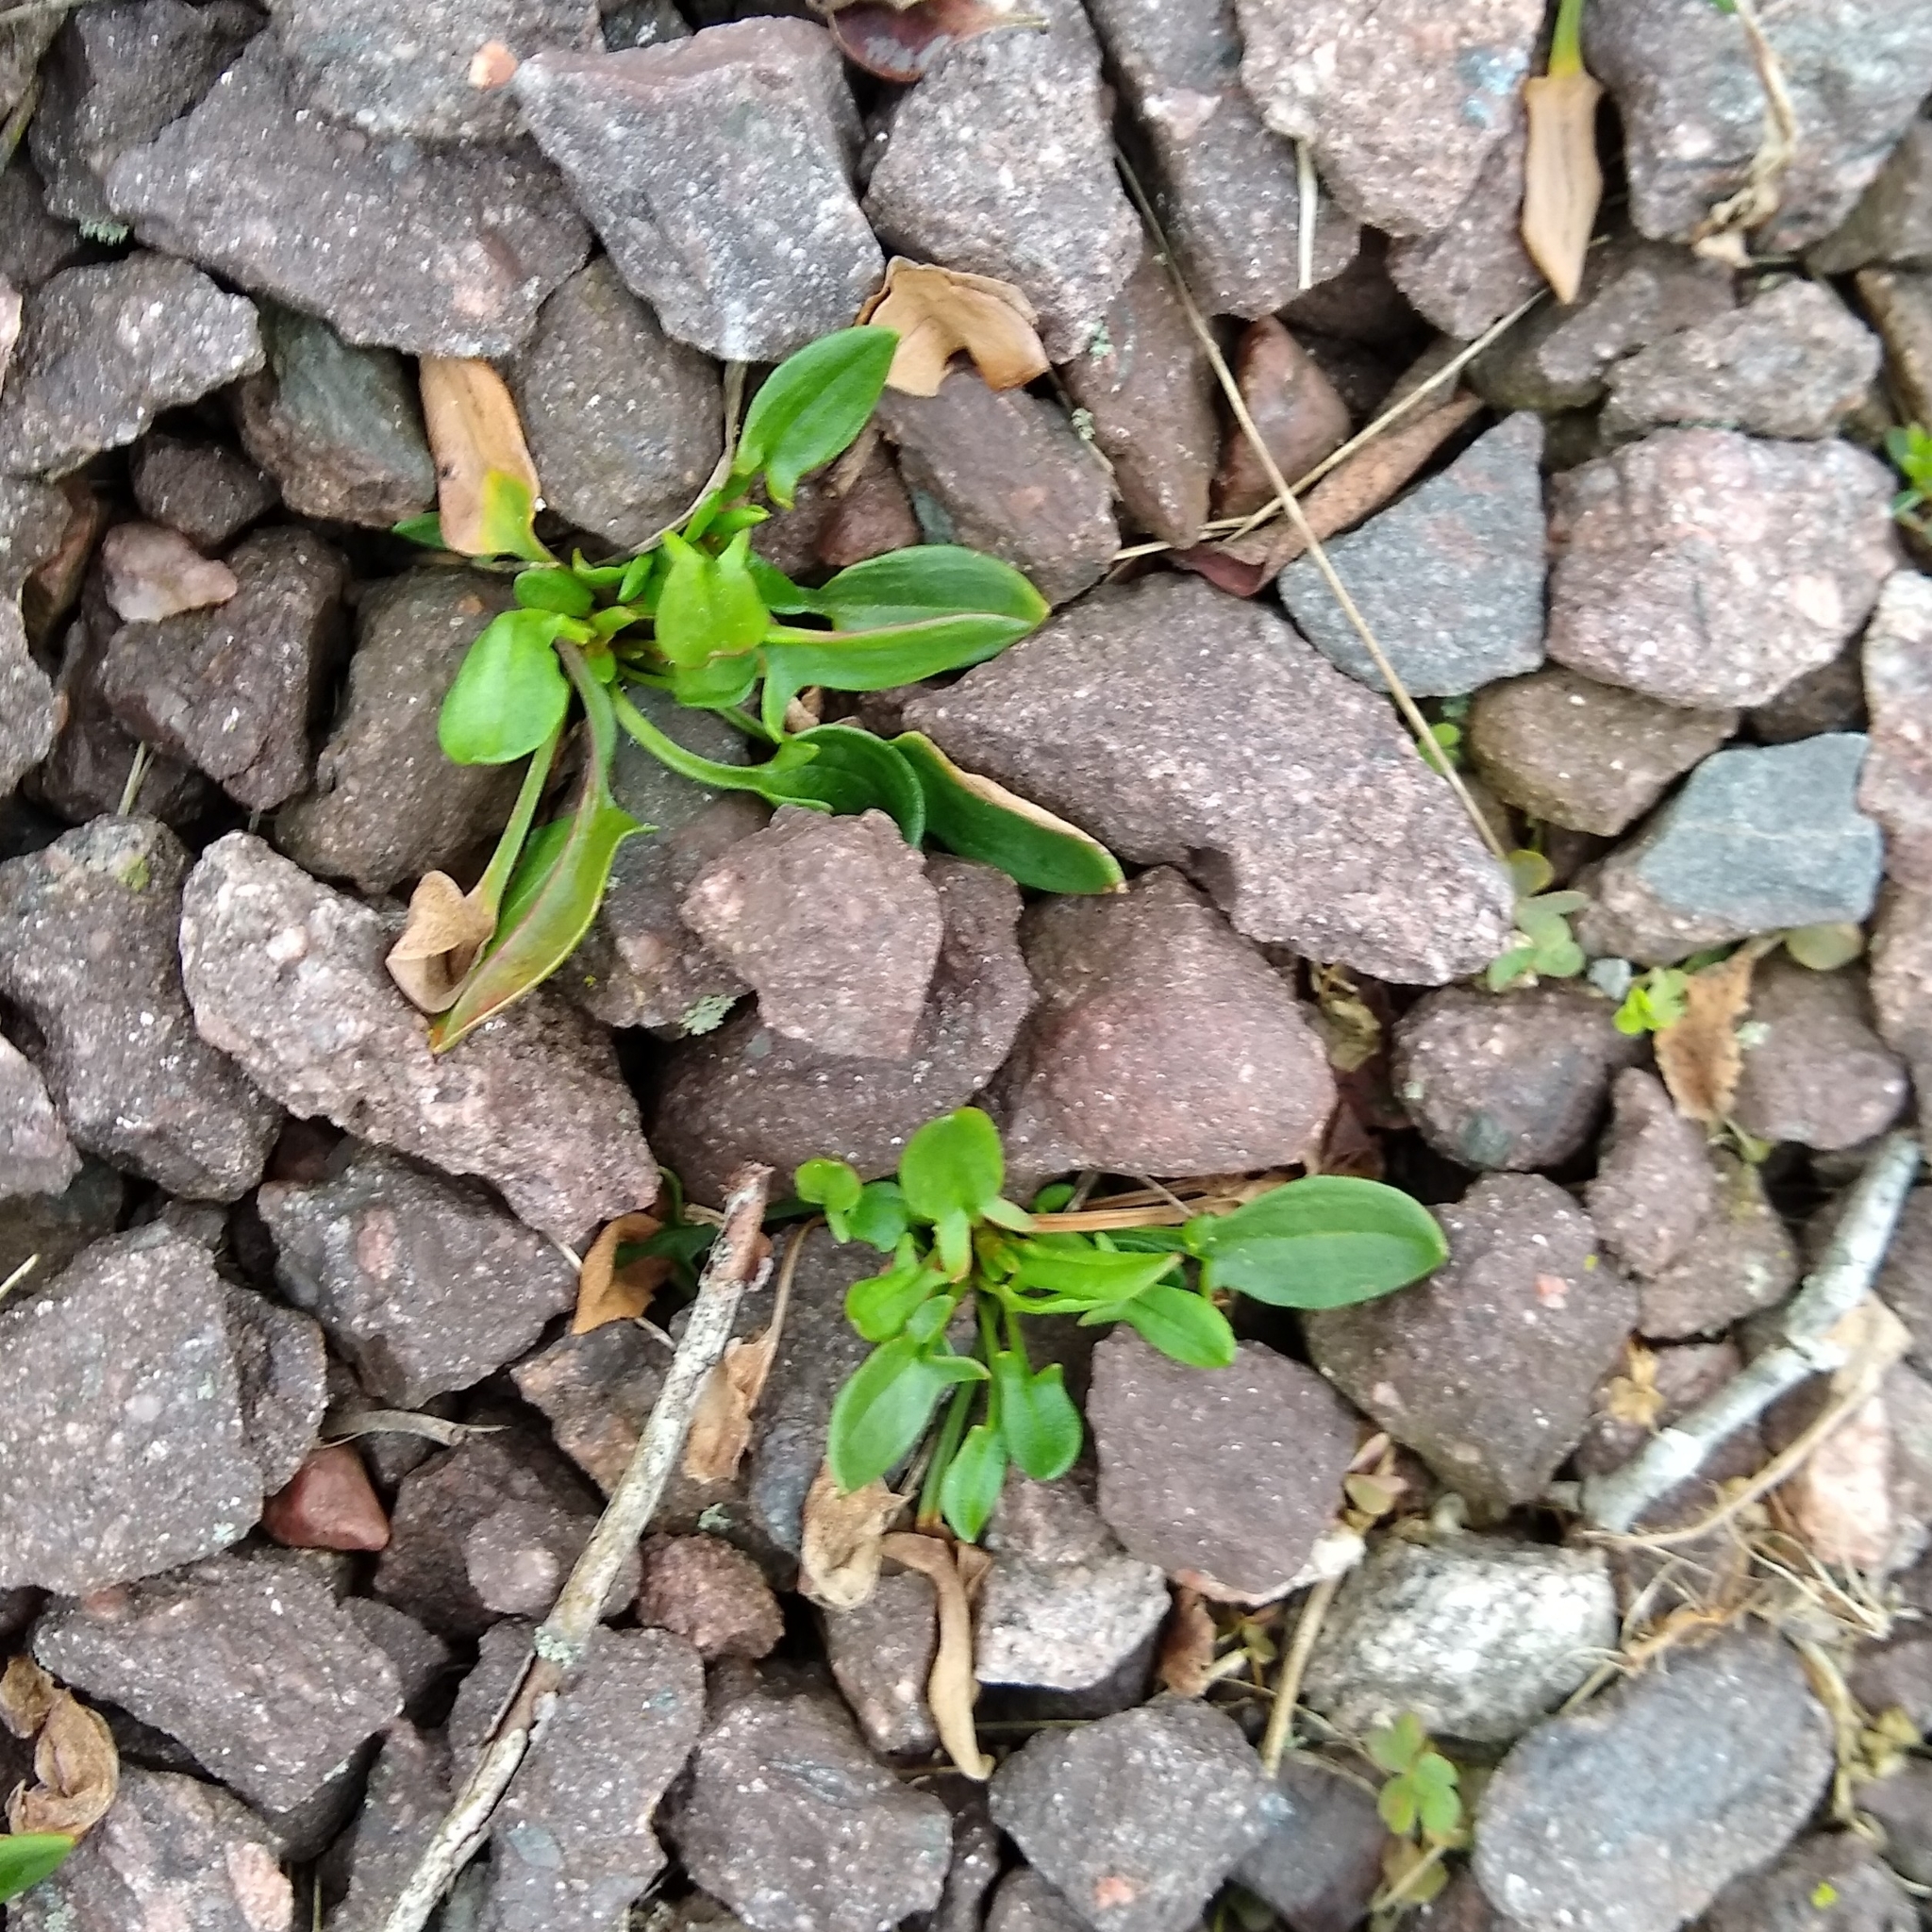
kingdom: Plantae
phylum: Tracheophyta
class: Magnoliopsida
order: Caryophyllales
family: Polygonaceae
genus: Rumex
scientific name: Rumex acetosella
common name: Common sheep sorrel
